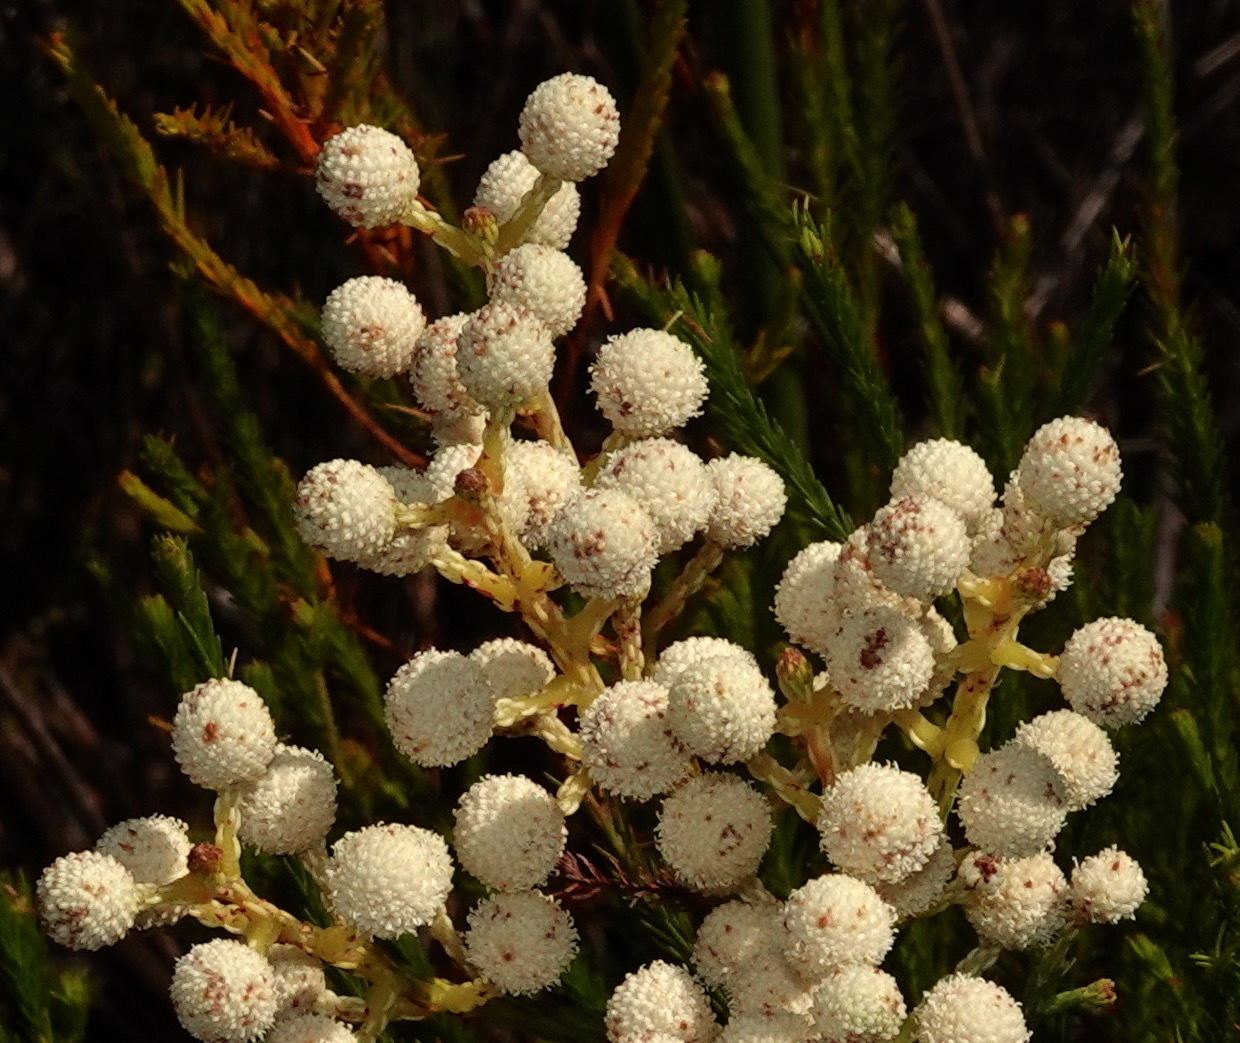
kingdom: Plantae
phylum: Tracheophyta
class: Magnoliopsida
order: Bruniales
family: Bruniaceae
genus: Berzelia
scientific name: Berzelia lanuginosa
